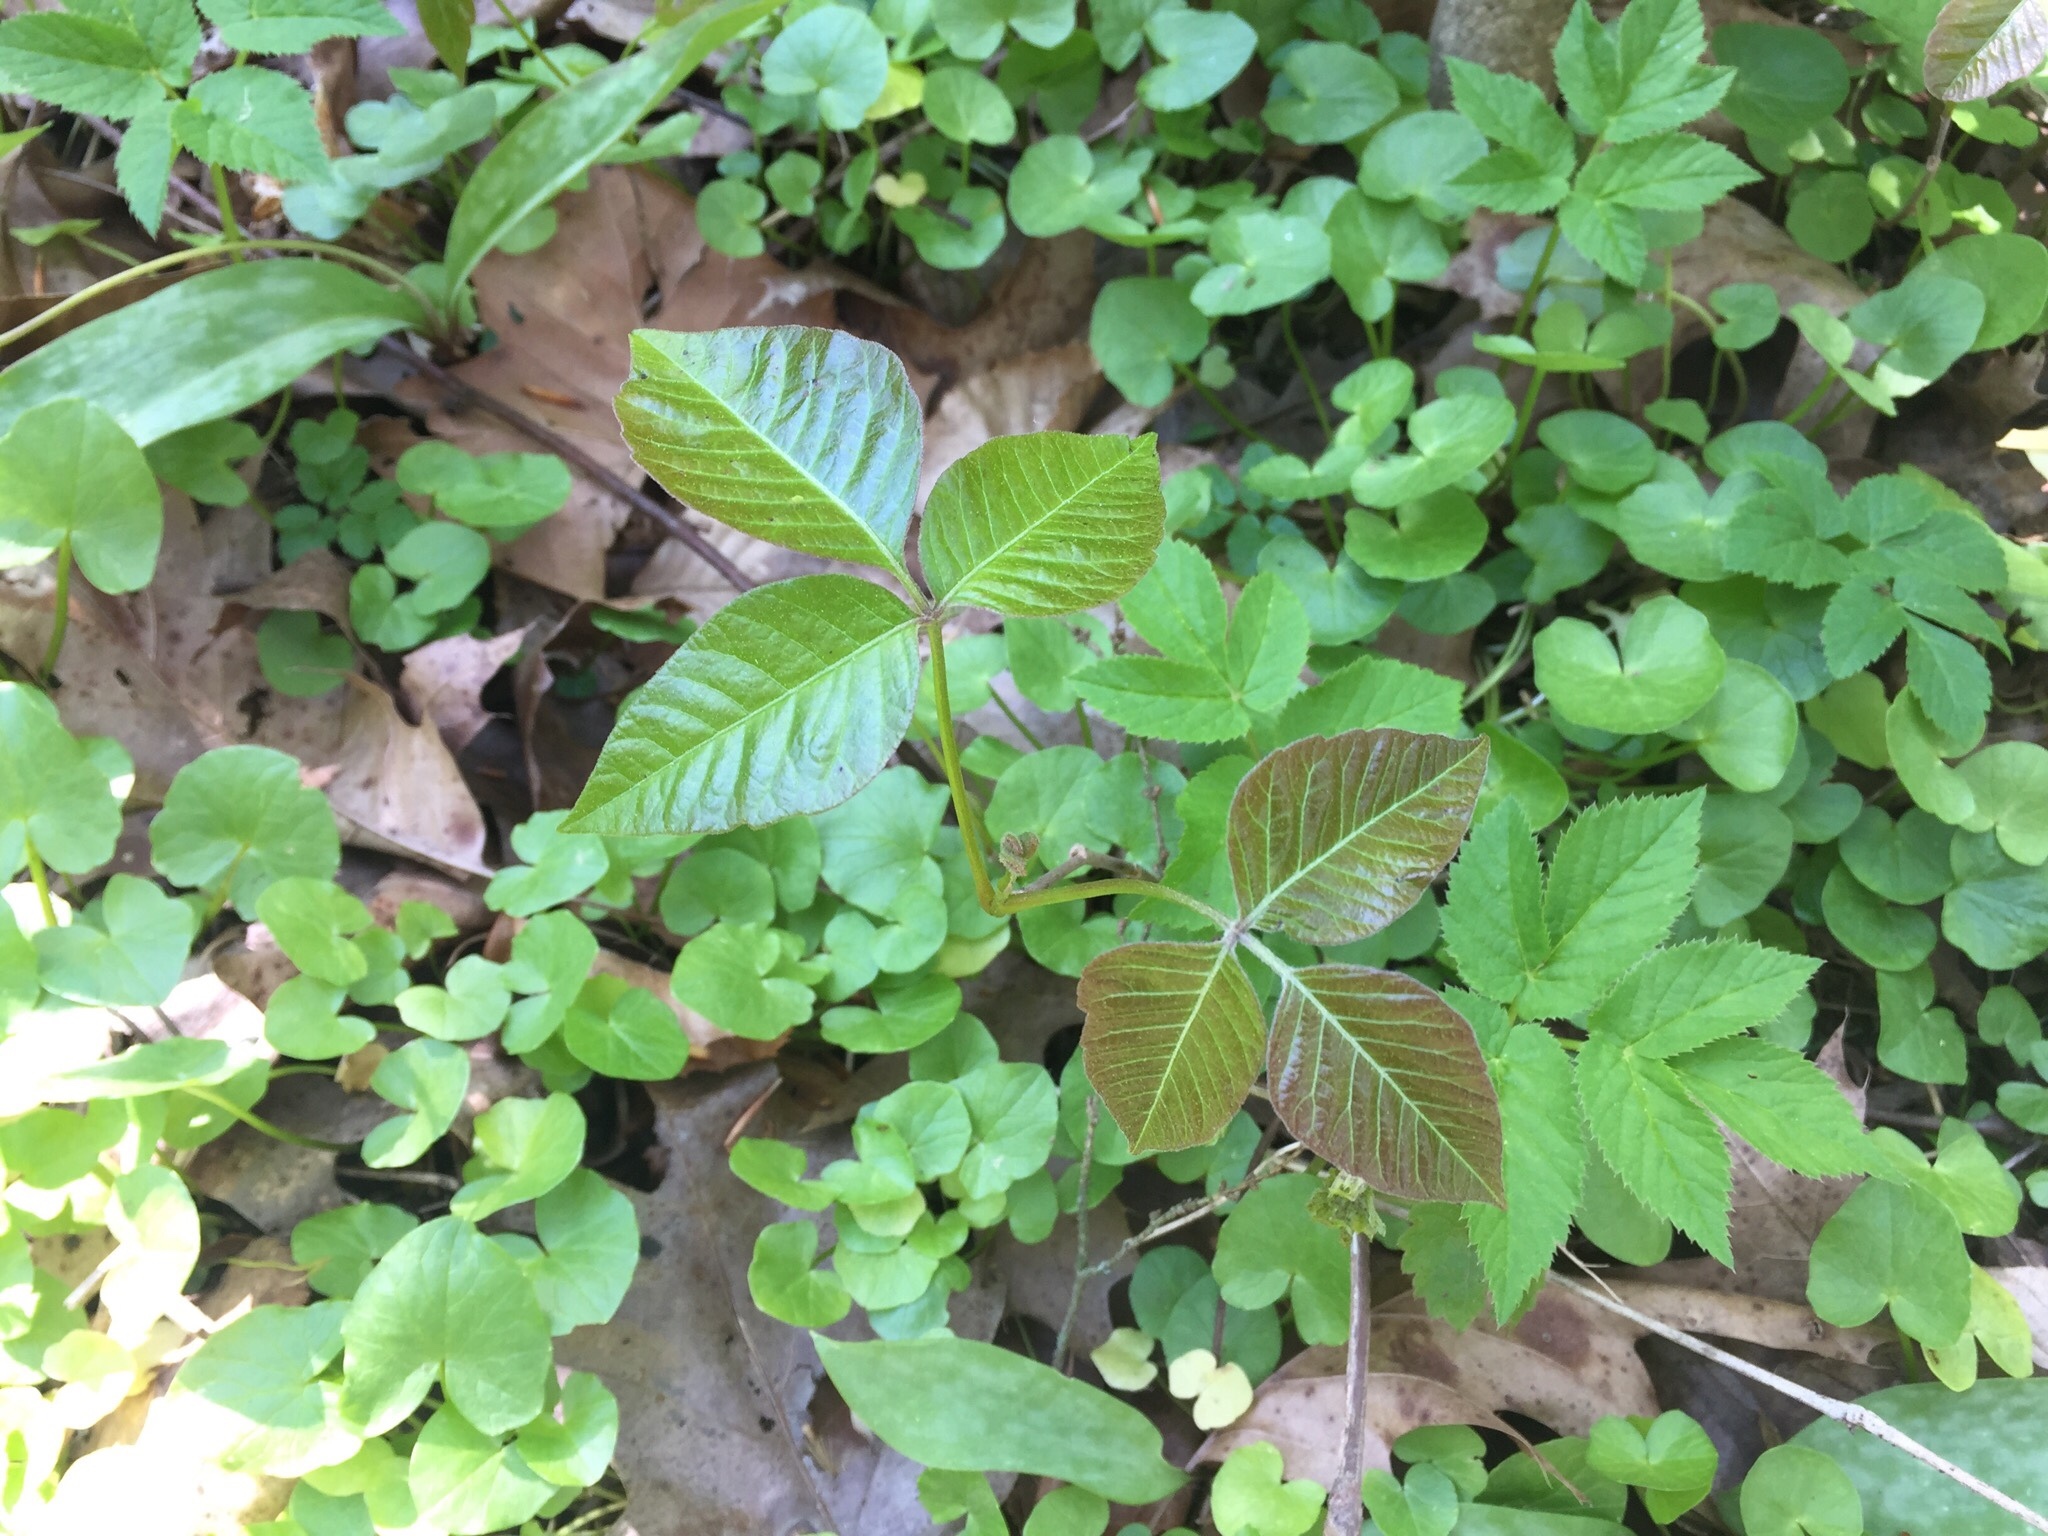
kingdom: Plantae
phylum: Tracheophyta
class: Magnoliopsida
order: Sapindales
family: Anacardiaceae
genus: Toxicodendron
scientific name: Toxicodendron radicans
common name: Poison ivy
